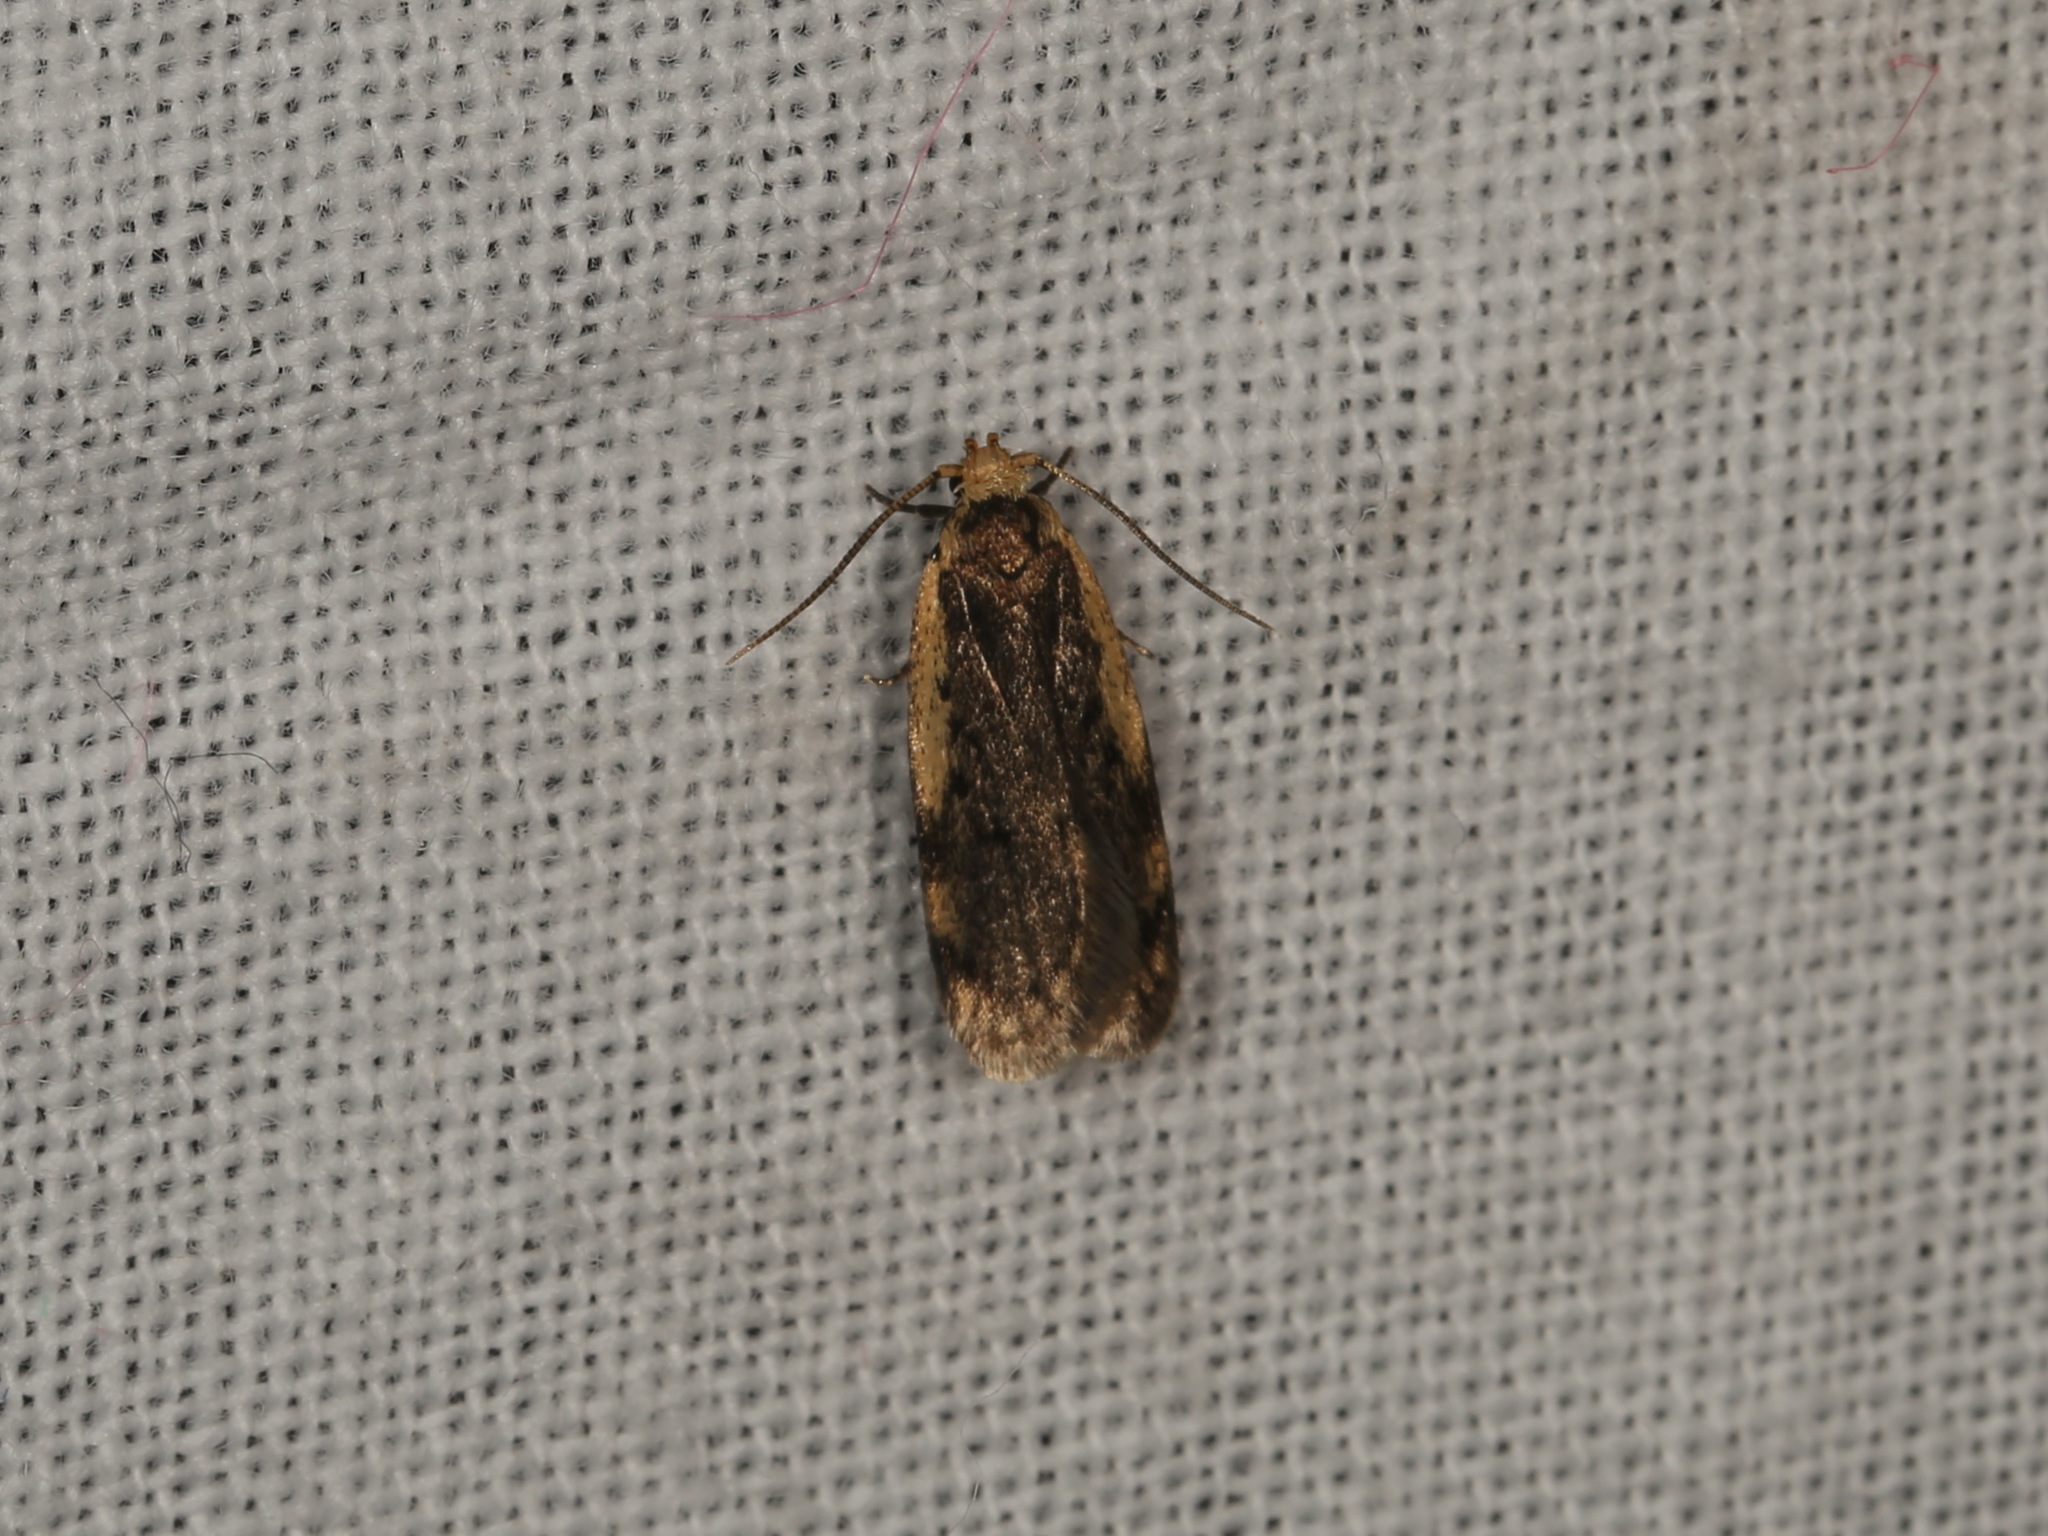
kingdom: Animalia
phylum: Arthropoda
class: Insecta
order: Lepidoptera
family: Oecophoridae
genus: Hoplostega
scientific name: Hoplostega ochroma
